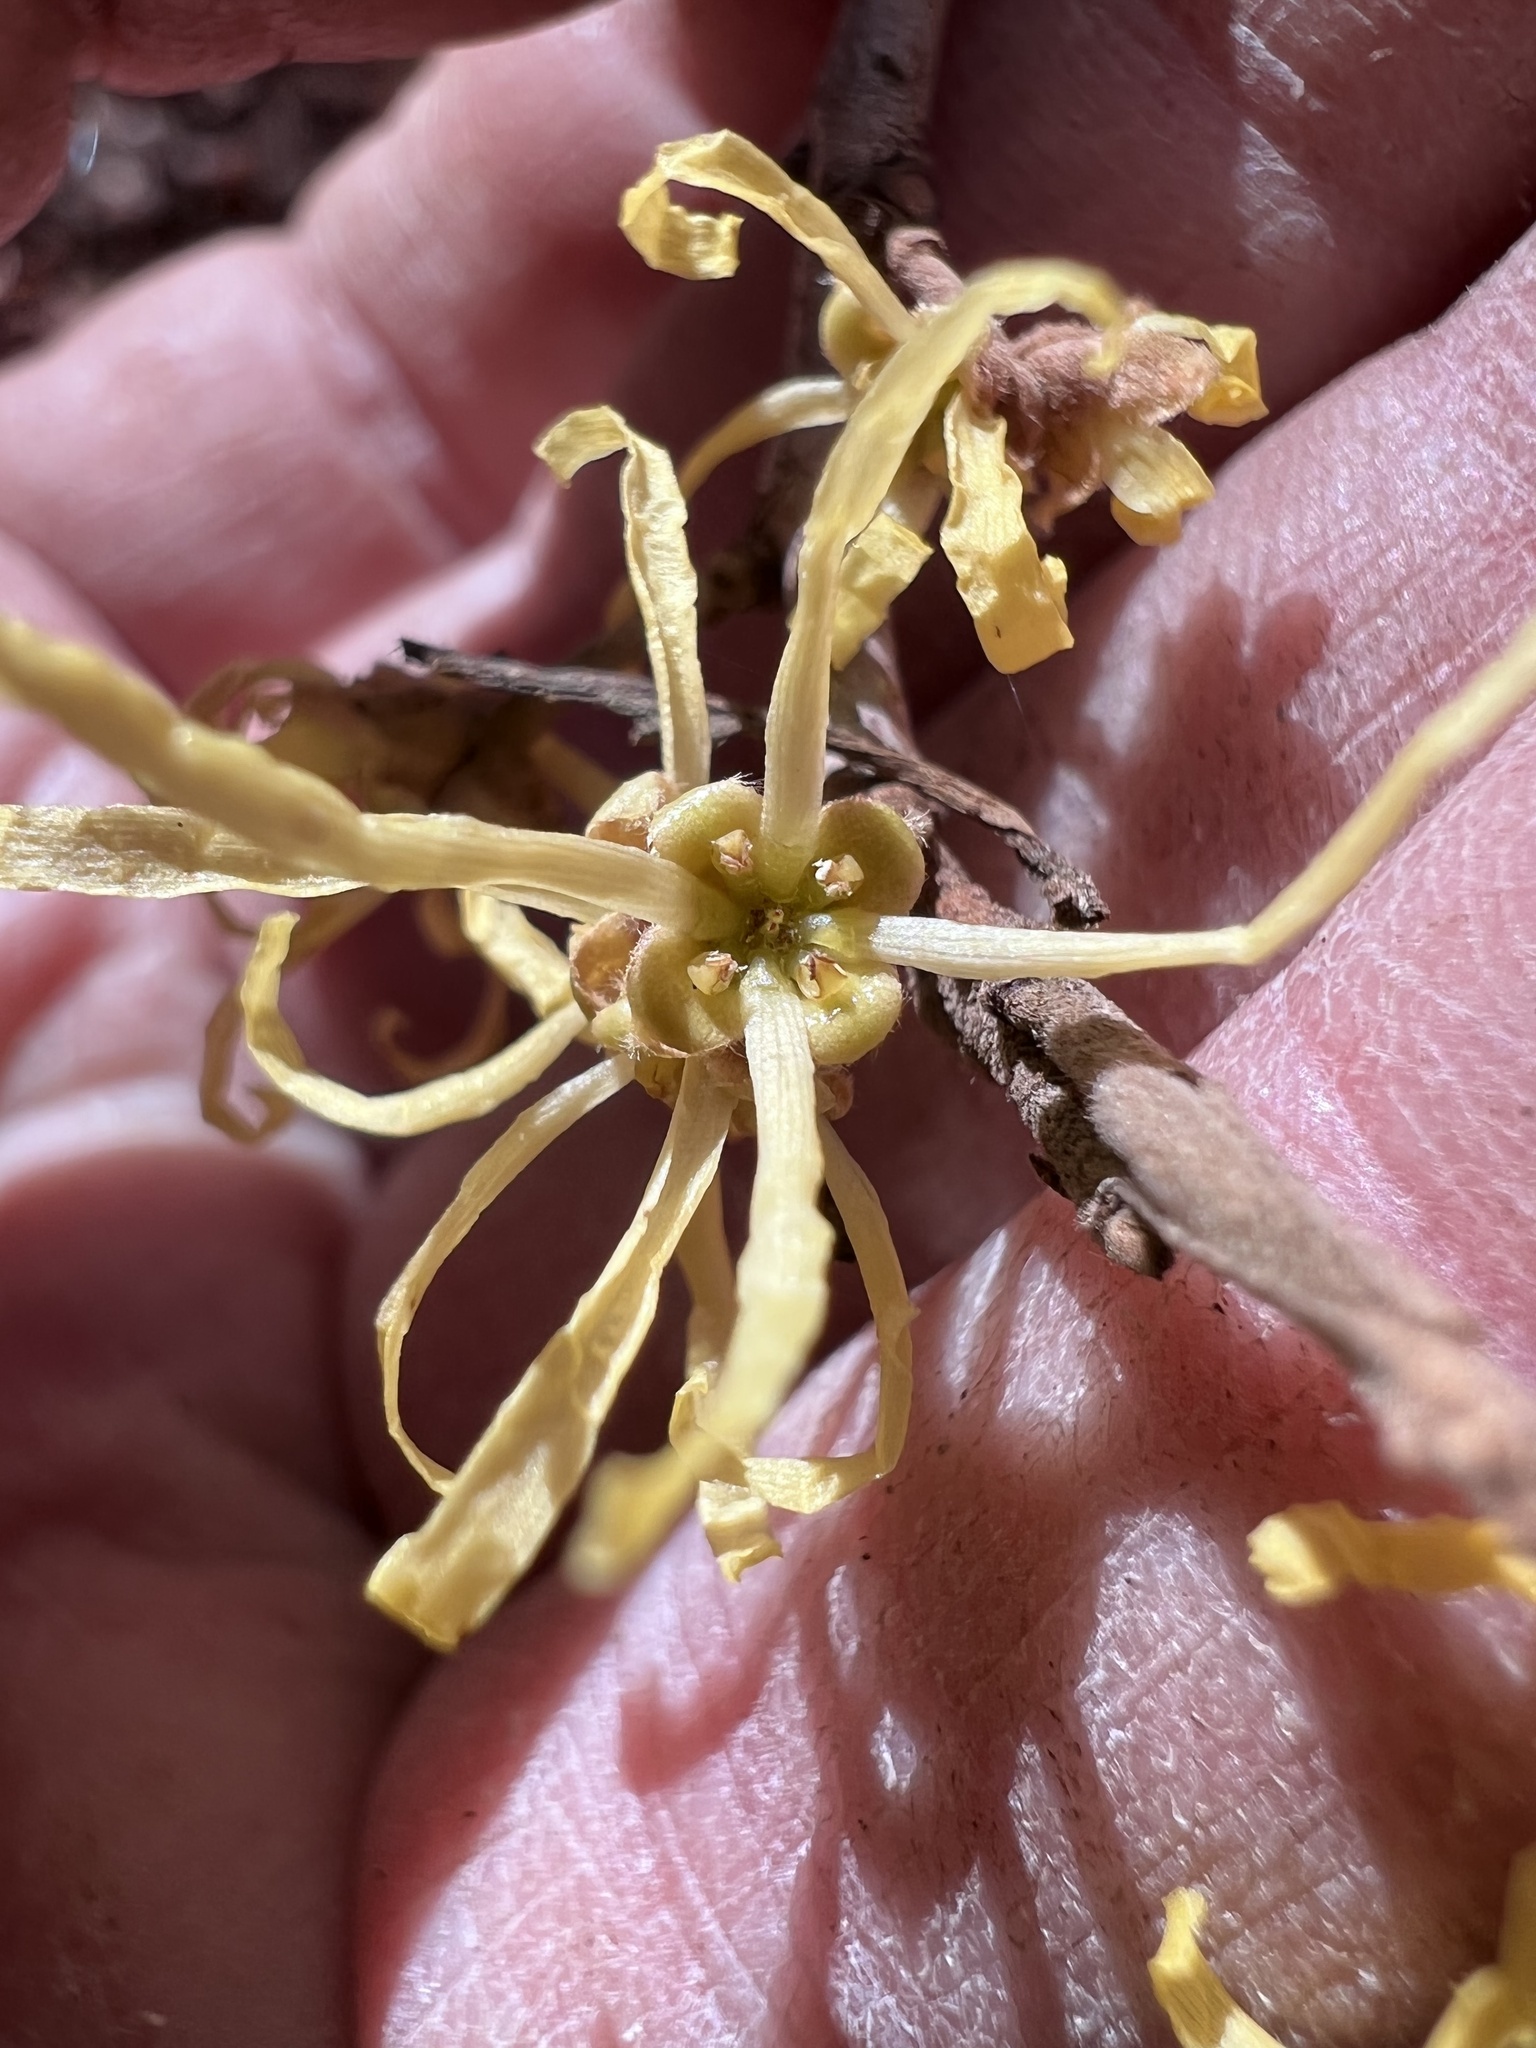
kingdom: Plantae
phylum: Tracheophyta
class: Magnoliopsida
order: Saxifragales
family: Hamamelidaceae
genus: Hamamelis
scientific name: Hamamelis virginiana
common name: Witch-hazel
